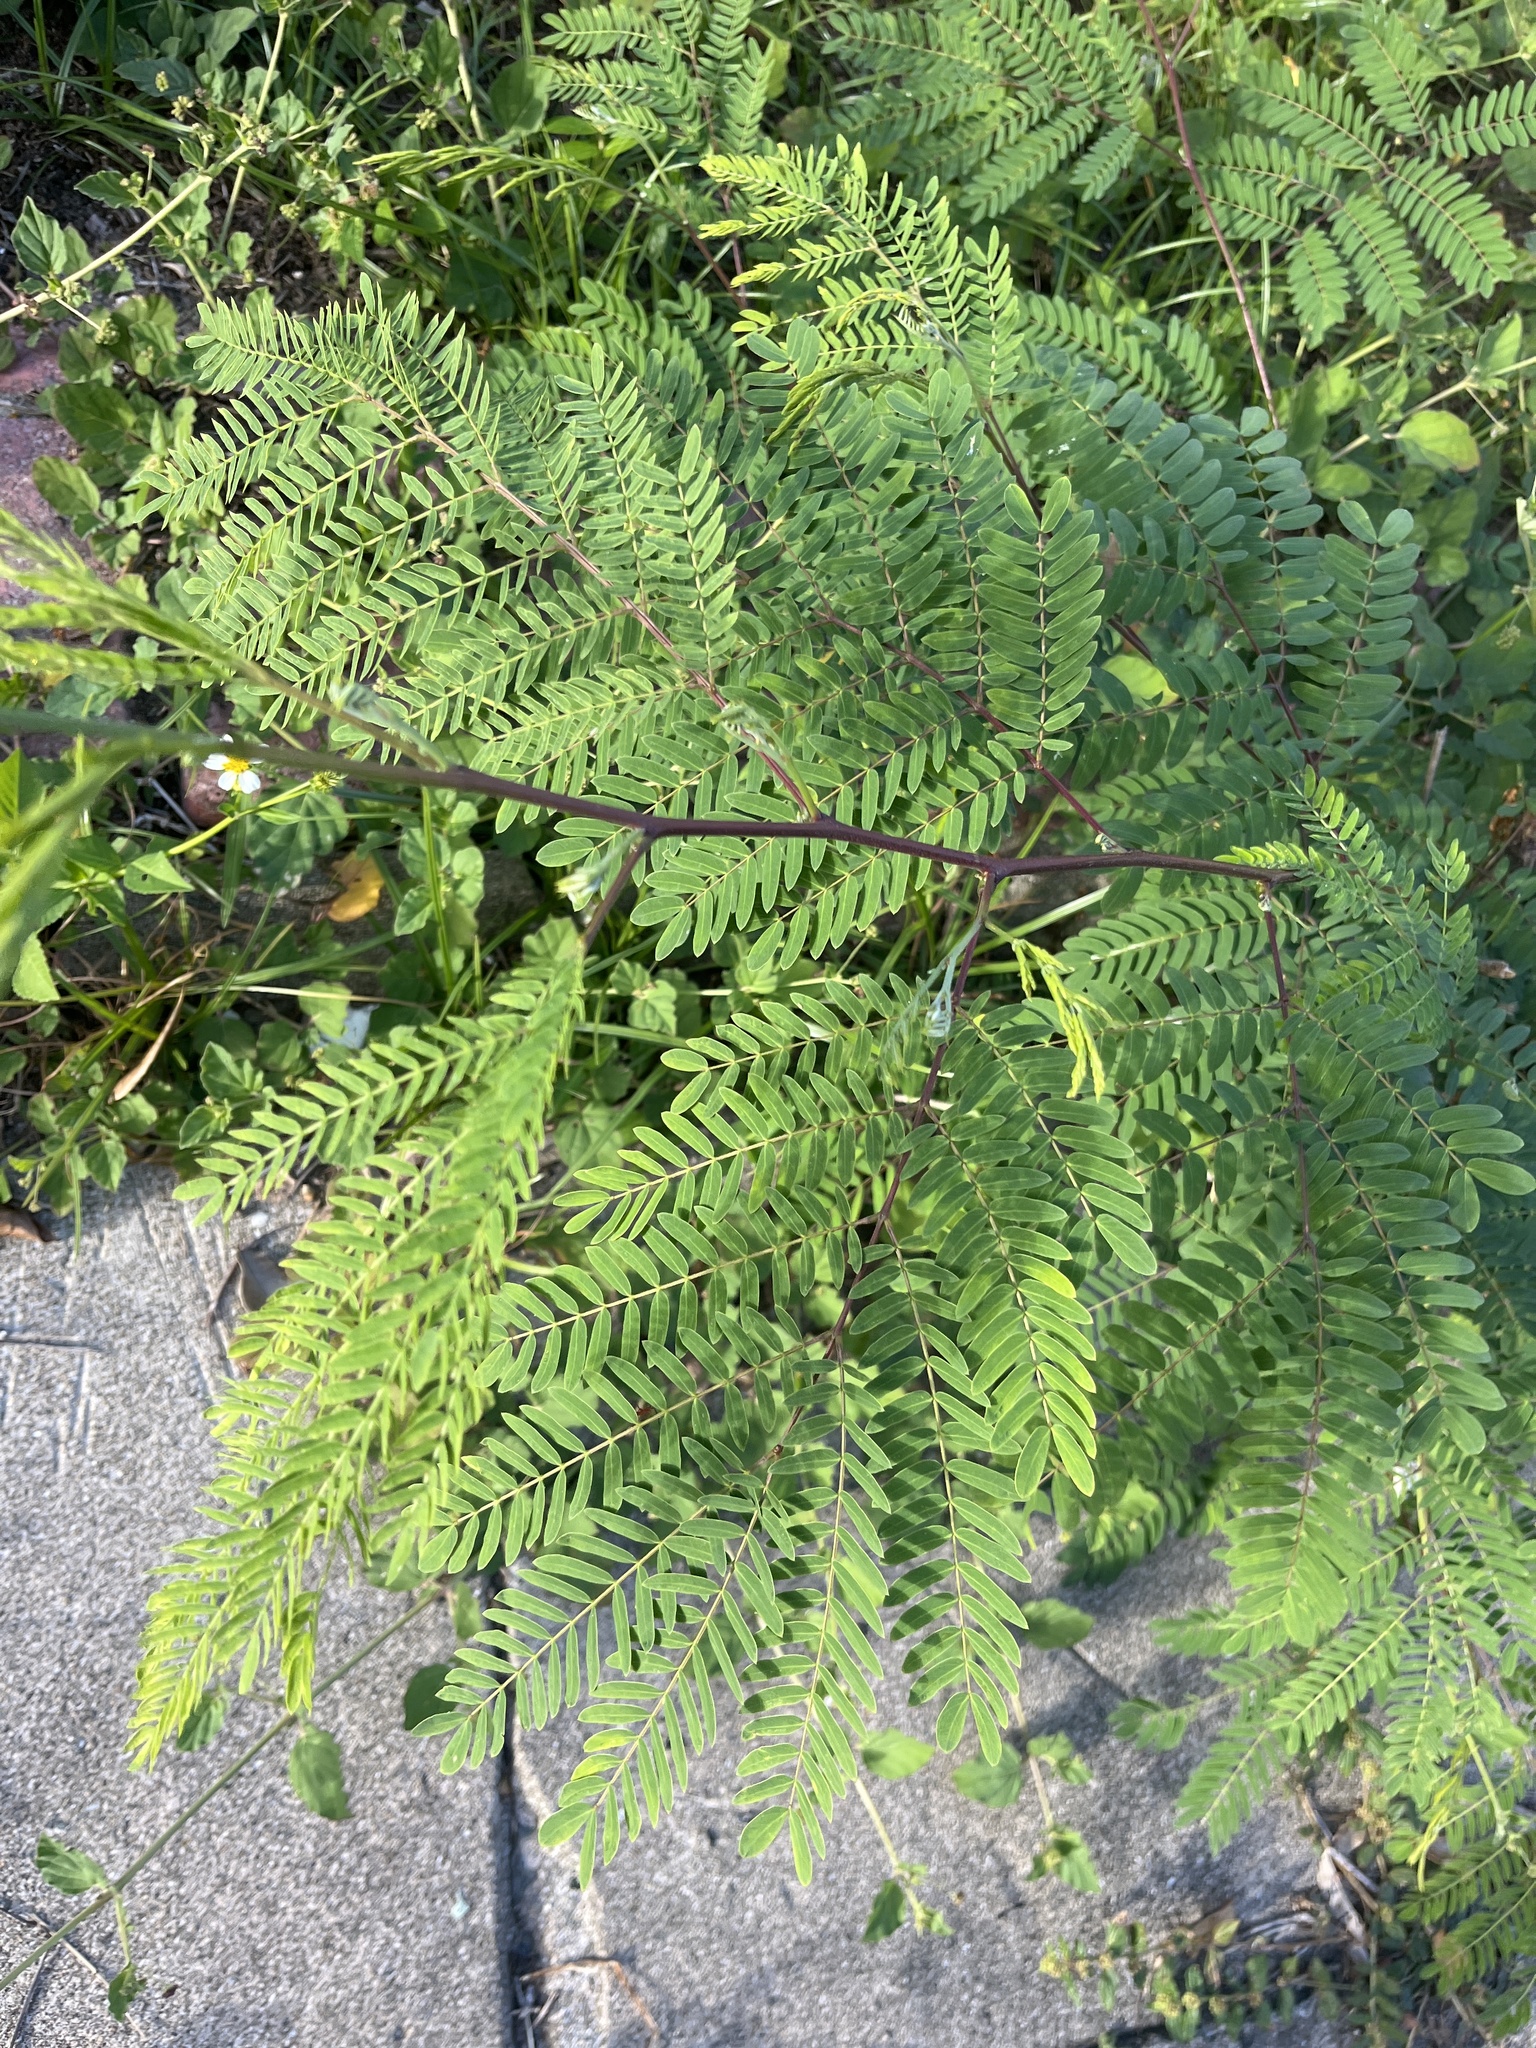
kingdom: Plantae
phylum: Tracheophyta
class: Magnoliopsida
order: Fabales
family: Fabaceae
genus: Leucaena
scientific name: Leucaena leucocephala
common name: White leadtree
